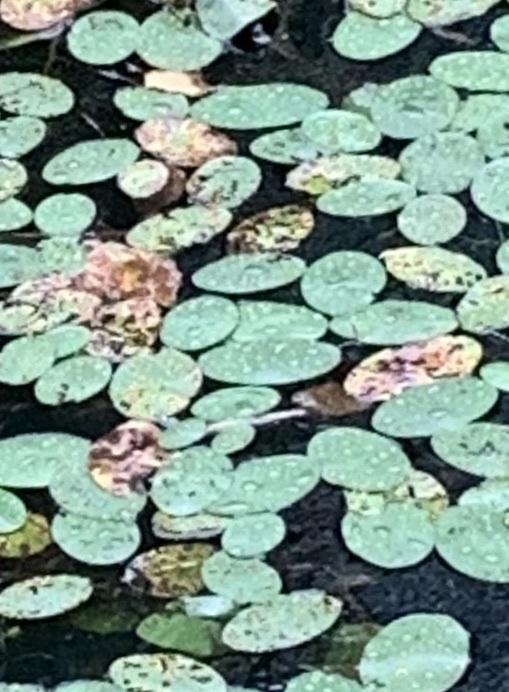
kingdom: Plantae
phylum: Tracheophyta
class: Magnoliopsida
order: Nymphaeales
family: Cabombaceae
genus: Brasenia
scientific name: Brasenia schreberi
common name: Water-shield
